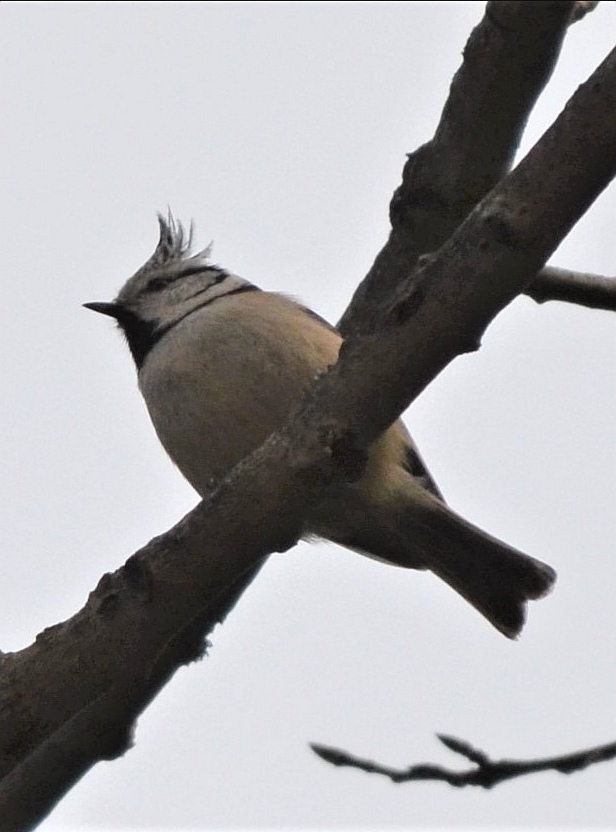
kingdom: Animalia
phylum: Chordata
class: Aves
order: Passeriformes
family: Paridae
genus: Lophophanes
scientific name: Lophophanes cristatus
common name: European crested tit
